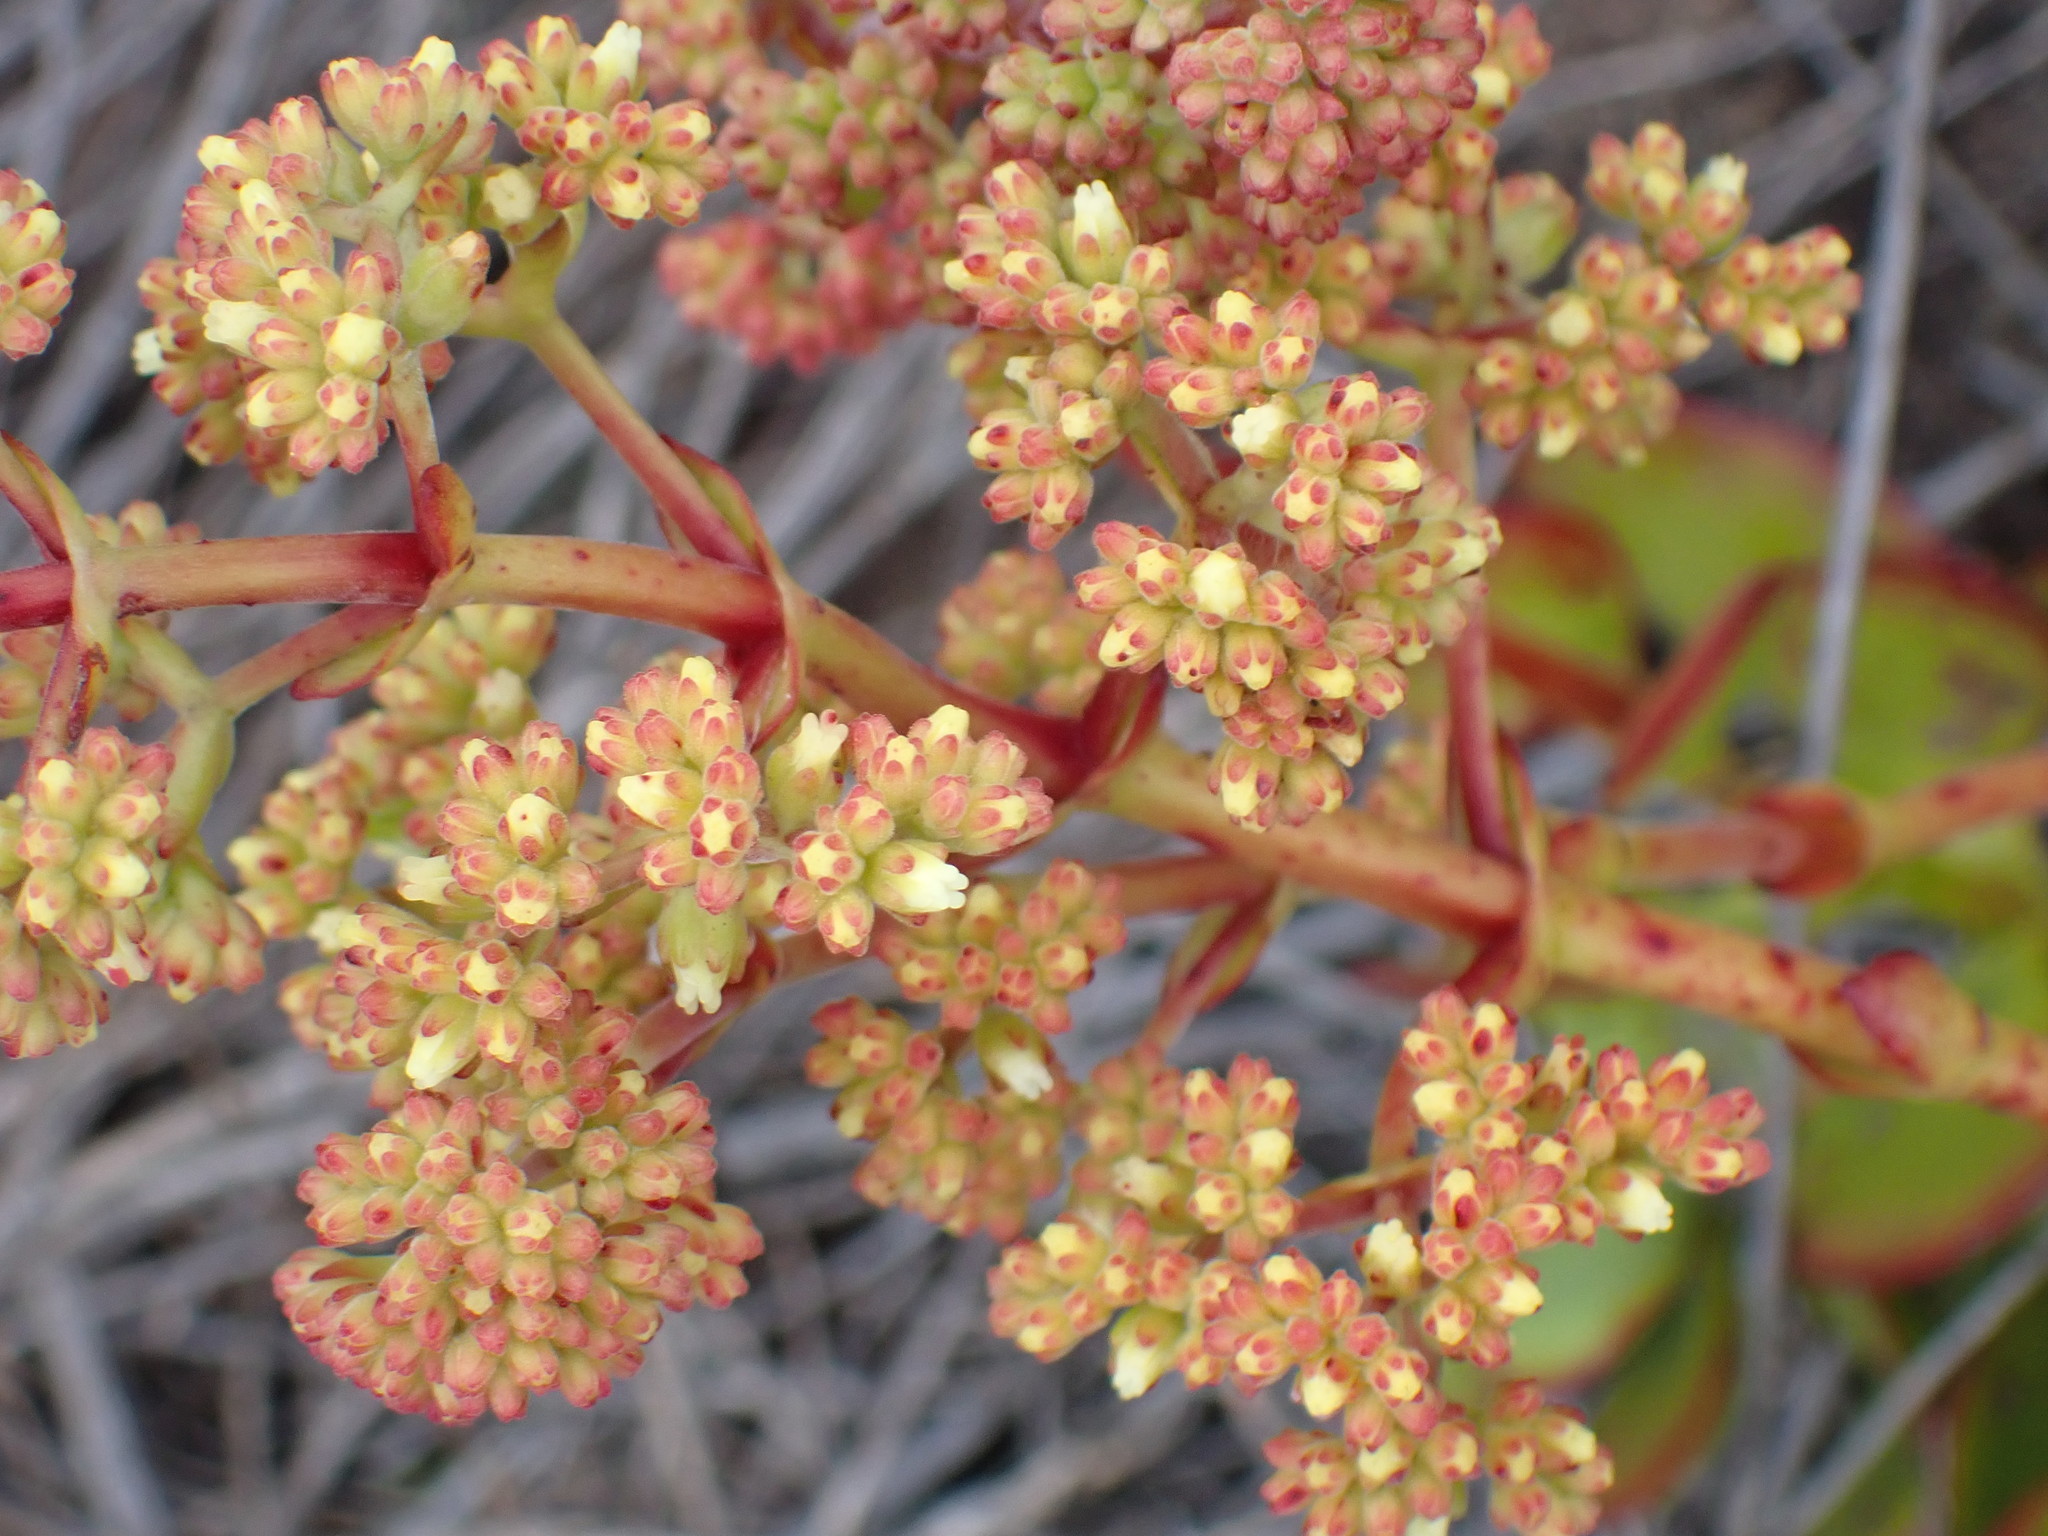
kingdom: Plantae
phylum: Tracheophyta
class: Magnoliopsida
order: Saxifragales
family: Crassulaceae
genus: Crassula
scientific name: Crassula cultrata
